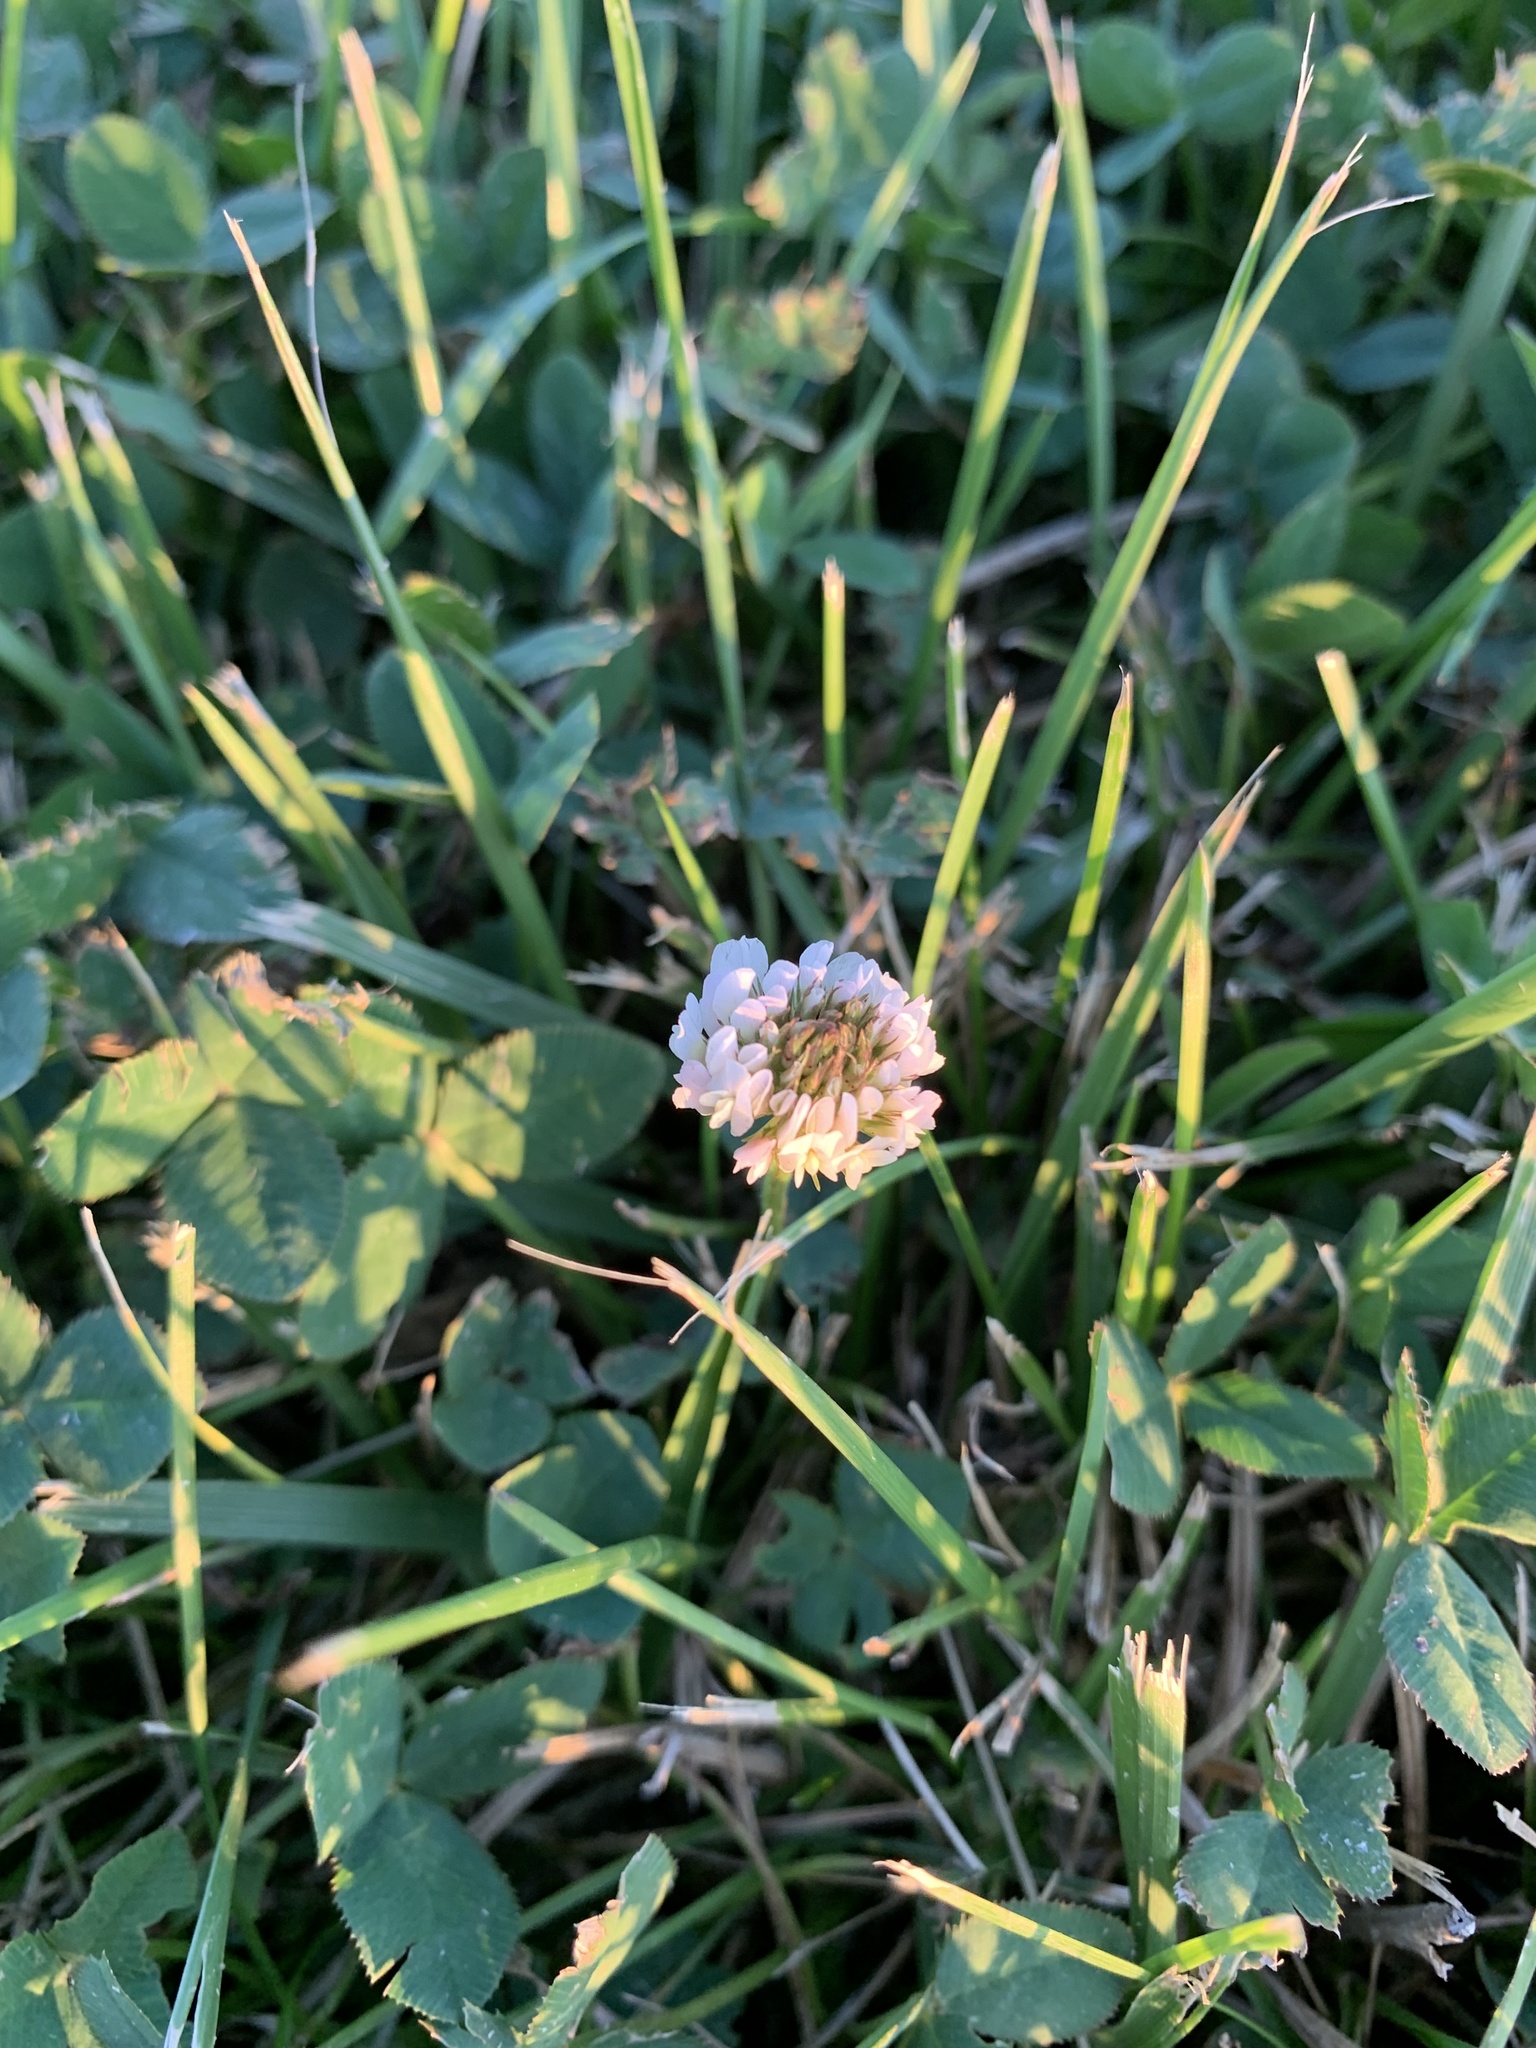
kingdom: Plantae
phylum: Tracheophyta
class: Magnoliopsida
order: Fabales
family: Fabaceae
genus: Trifolium
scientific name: Trifolium repens
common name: White clover
